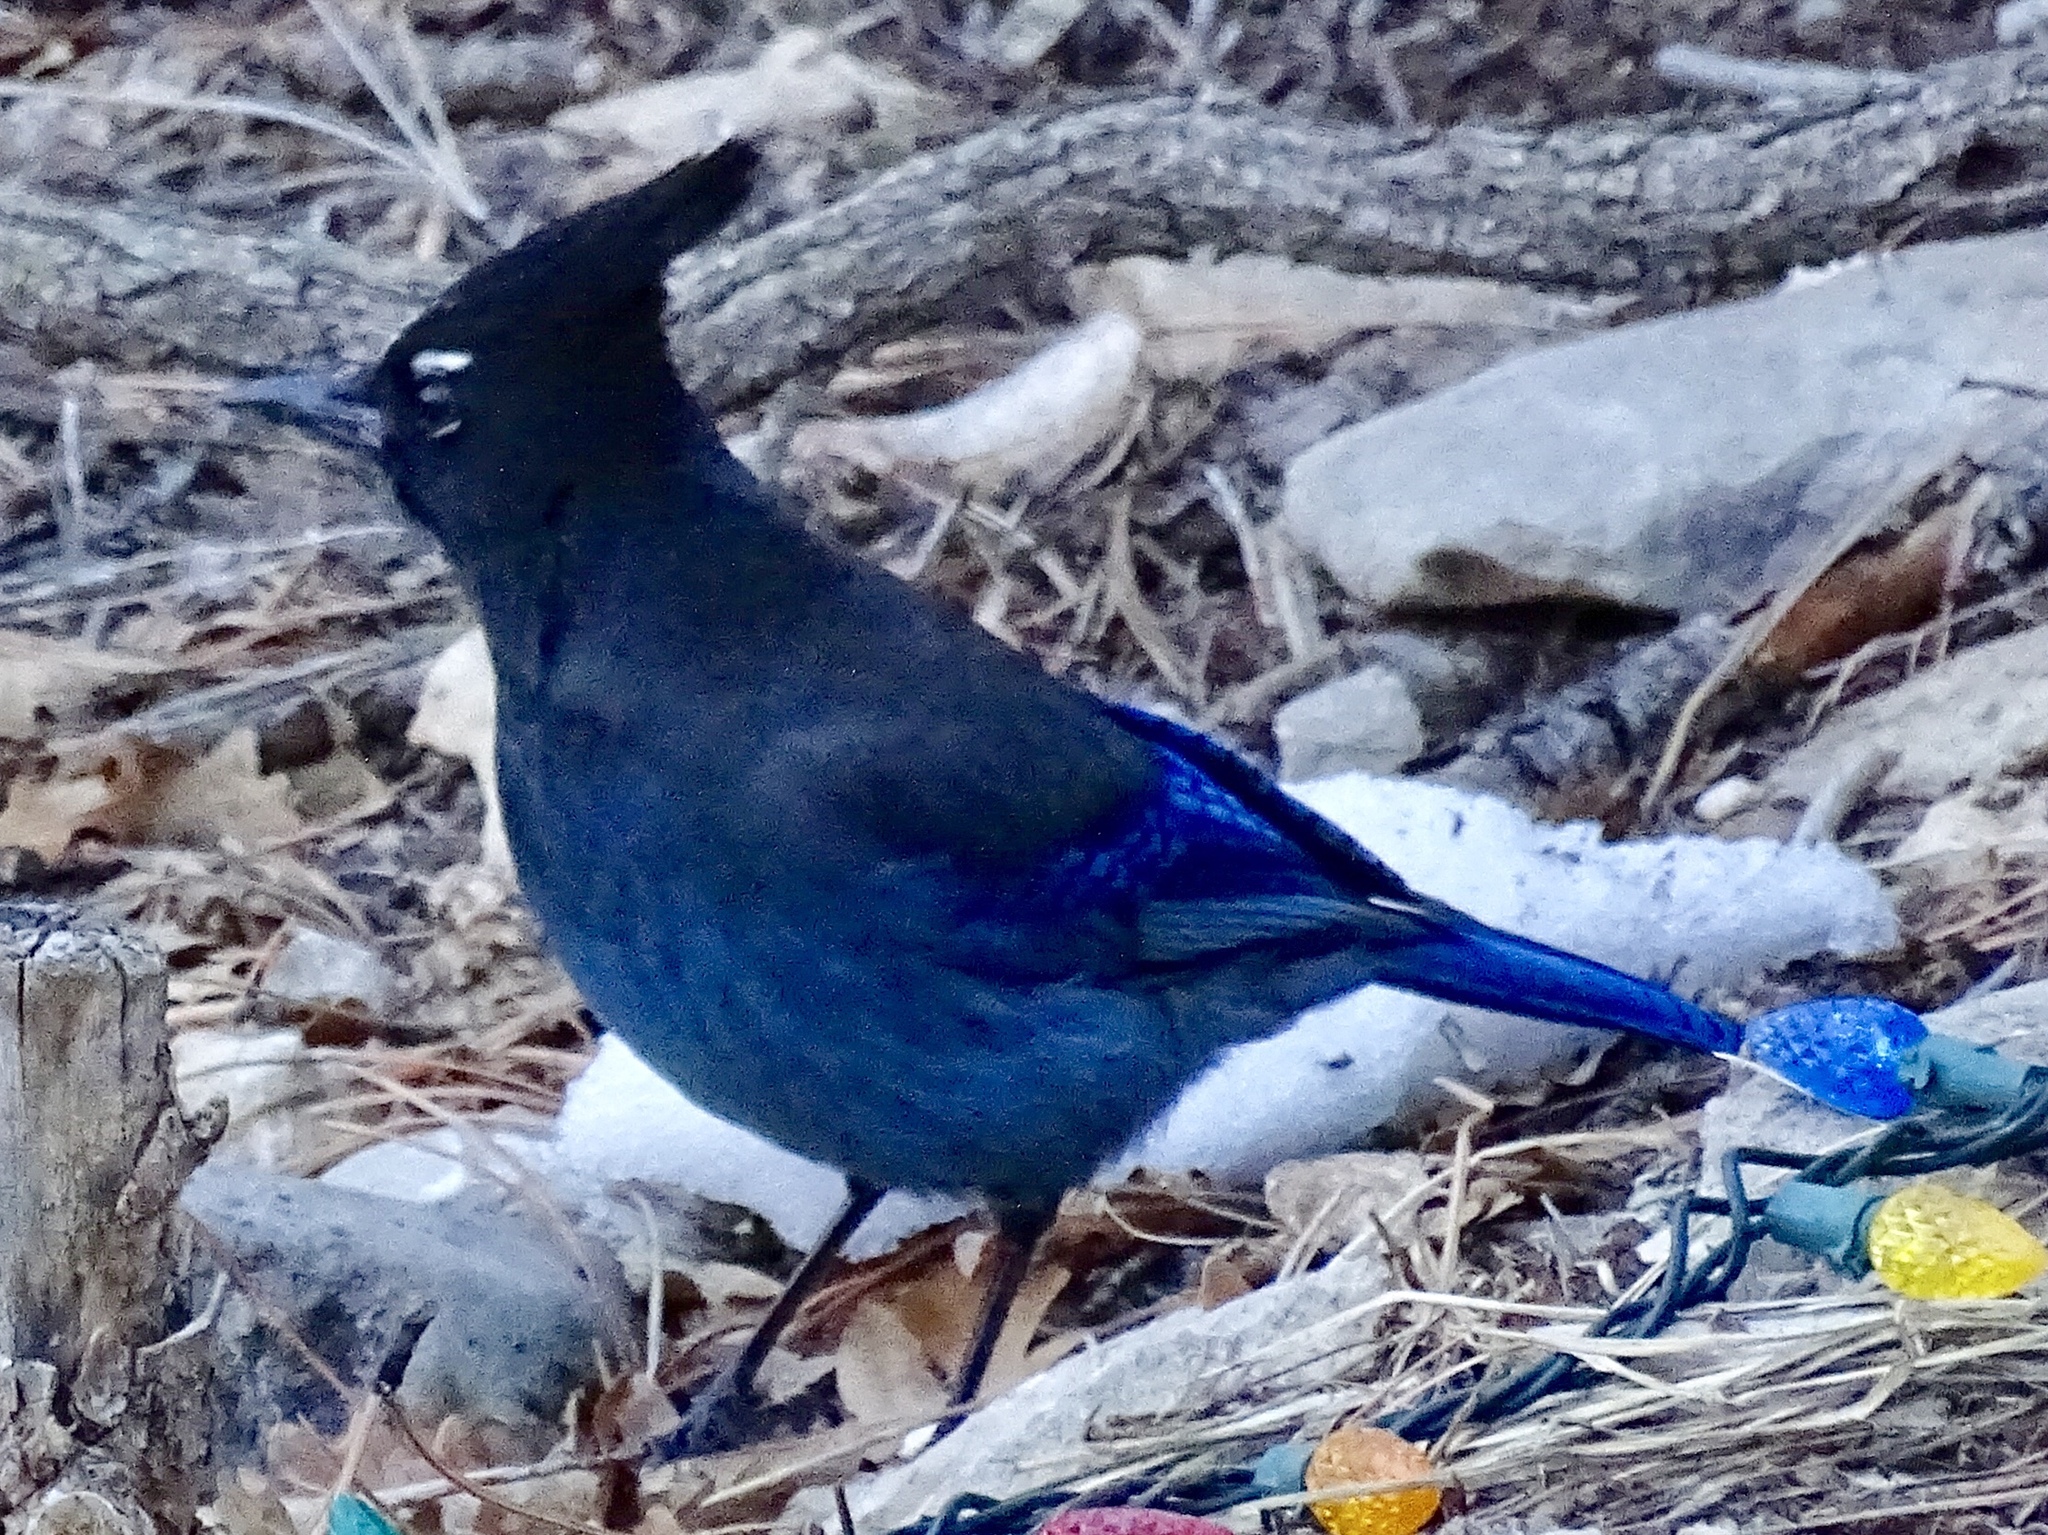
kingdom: Animalia
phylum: Chordata
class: Aves
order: Passeriformes
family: Corvidae
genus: Cyanocitta
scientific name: Cyanocitta stelleri
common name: Steller's jay
